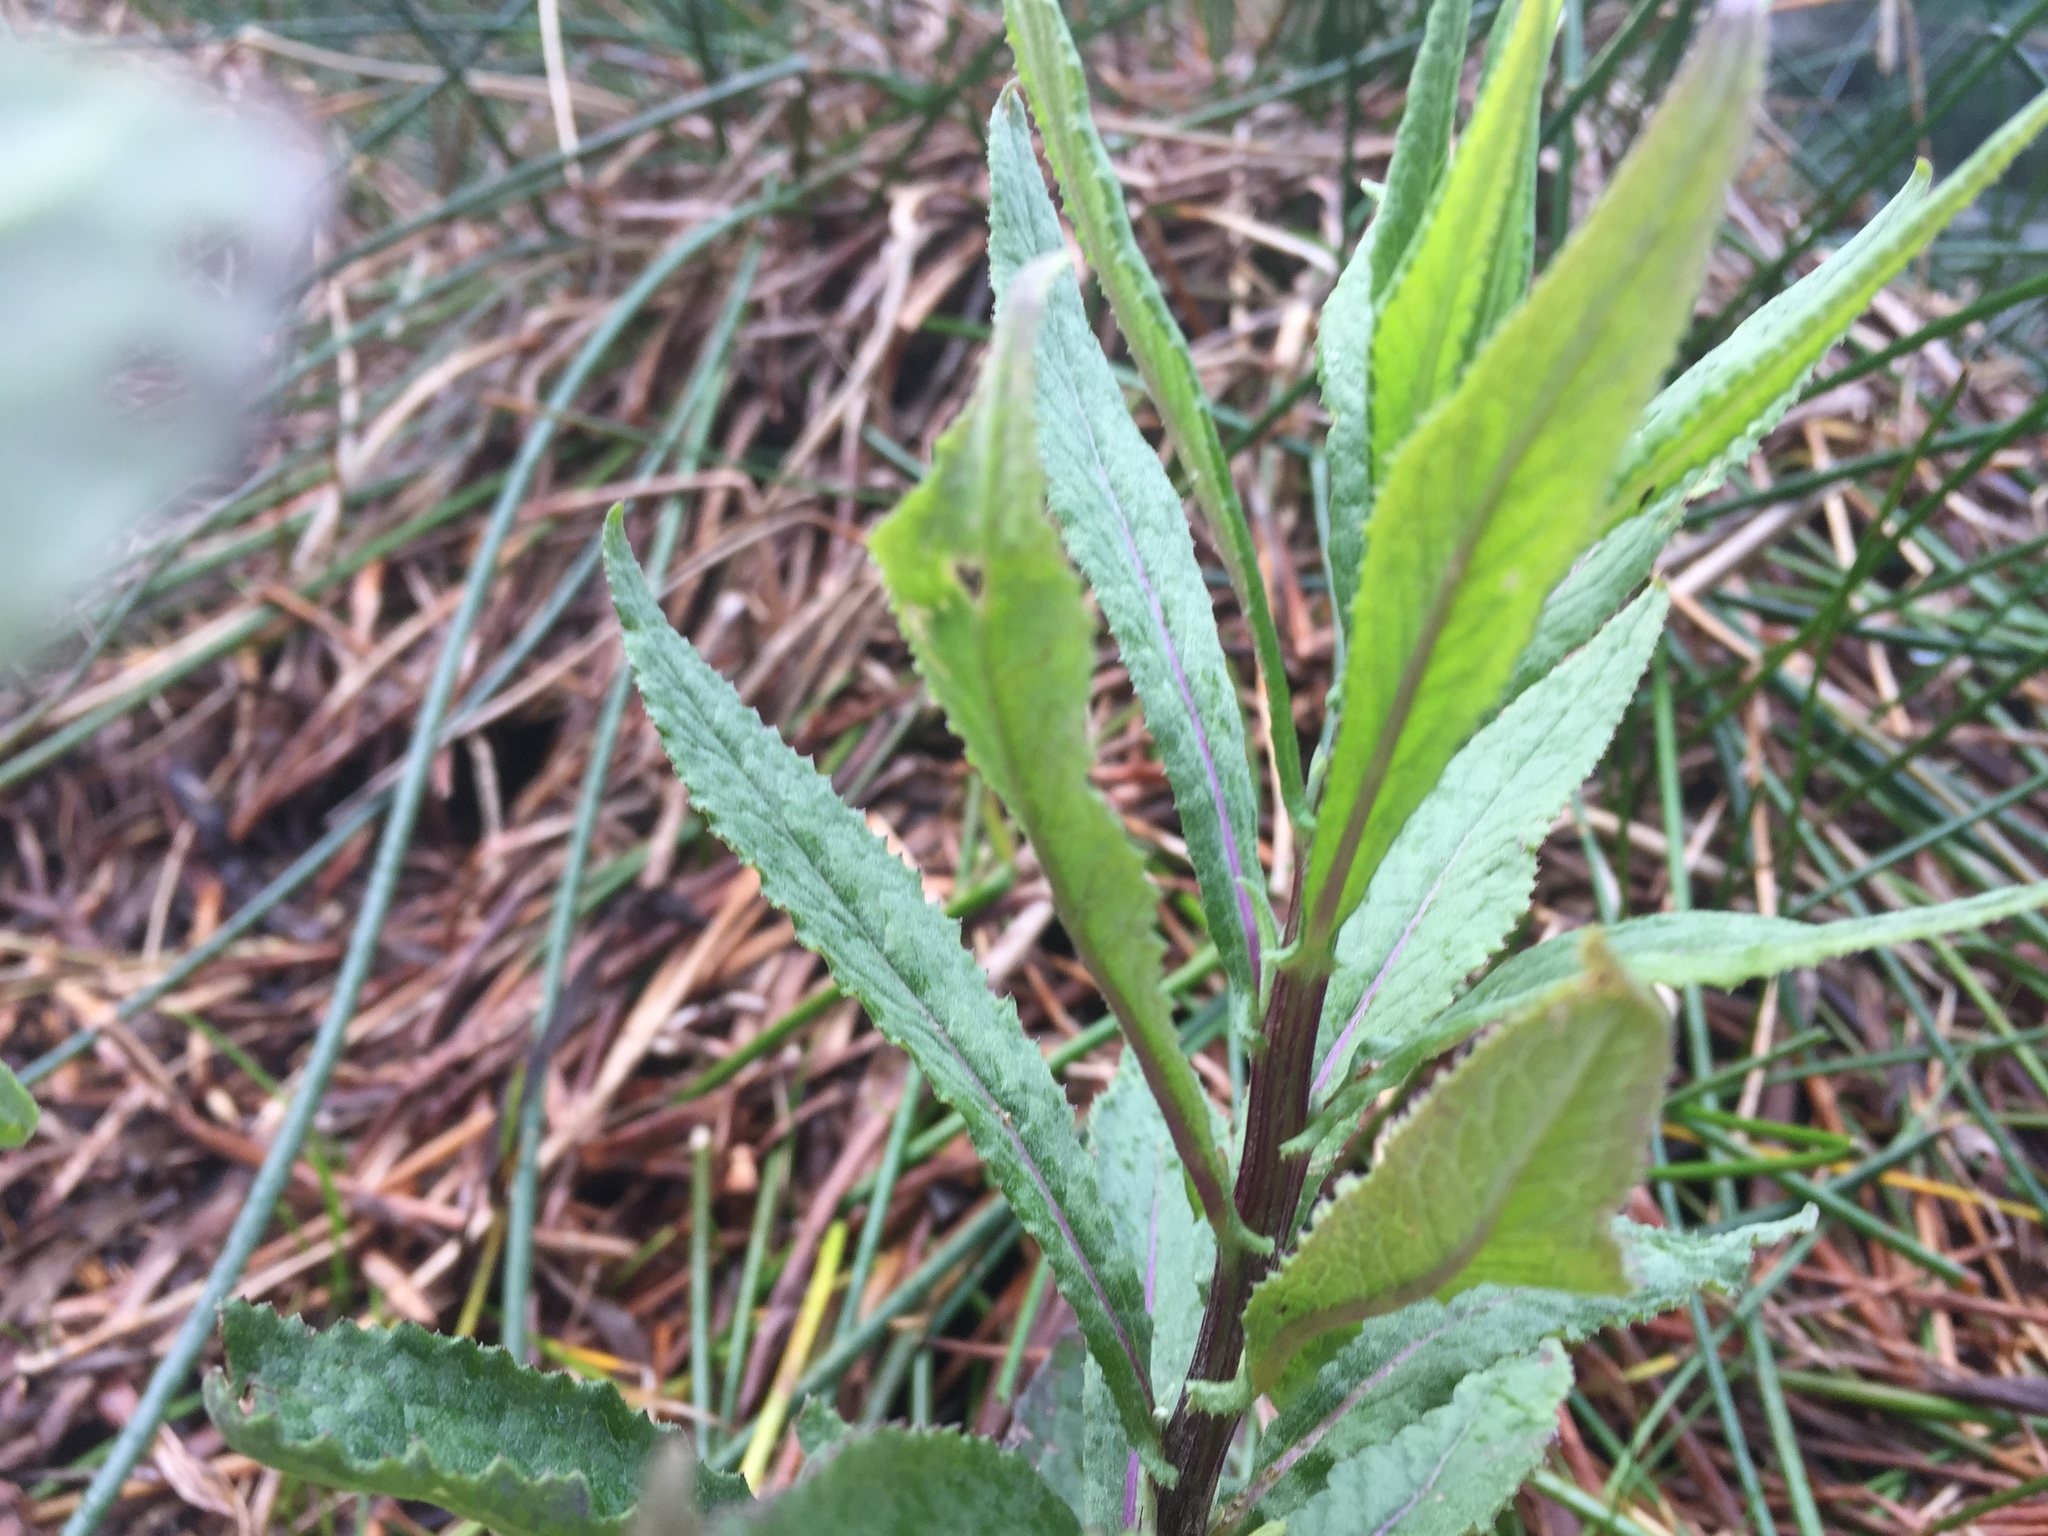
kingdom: Plantae
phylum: Tracheophyta
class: Magnoliopsida
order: Asterales
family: Asteraceae
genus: Senecio
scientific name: Senecio minimus
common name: Toothed fireweed
